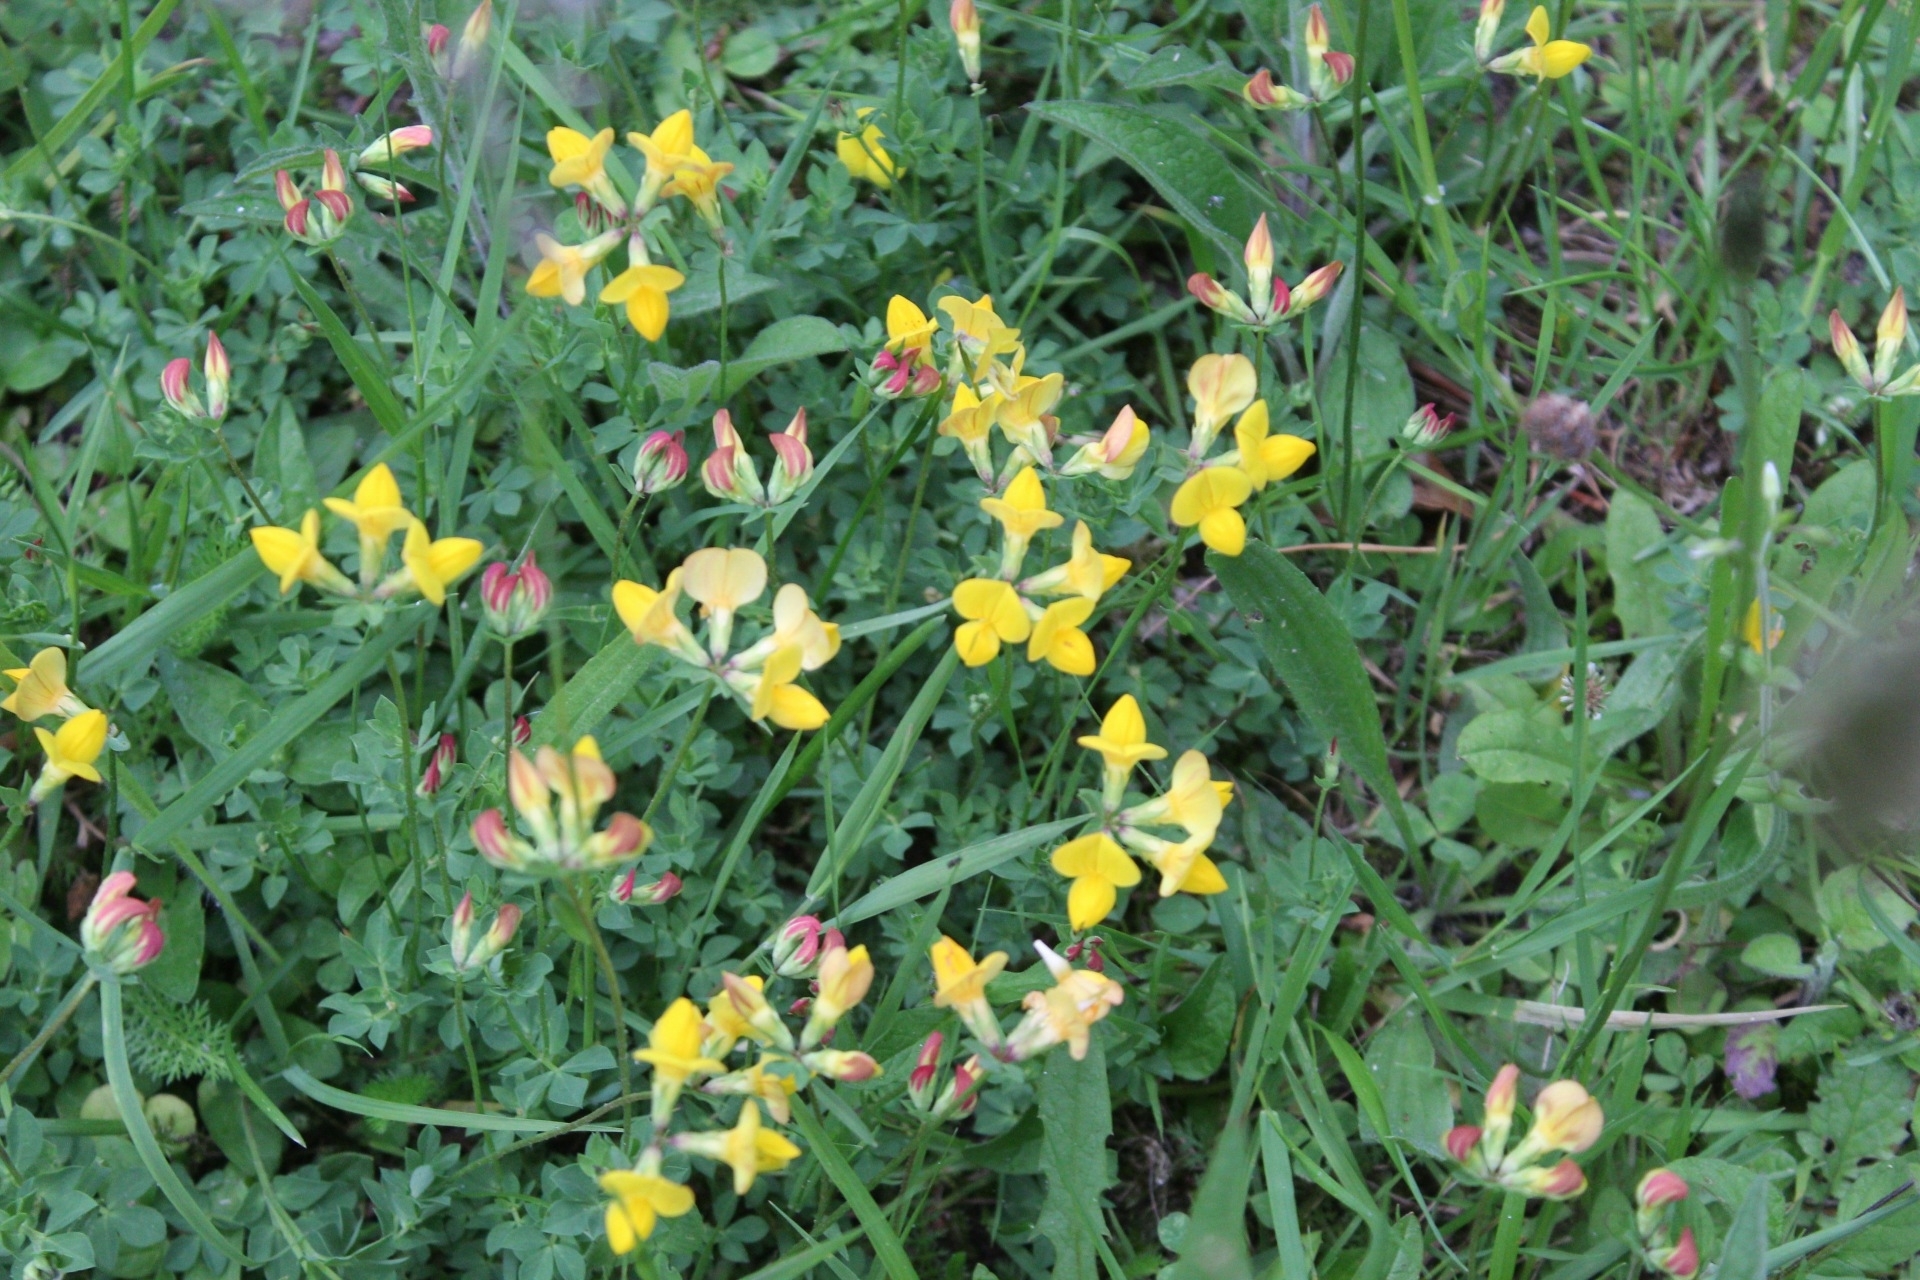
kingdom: Plantae
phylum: Tracheophyta
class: Magnoliopsida
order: Fabales
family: Fabaceae
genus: Lotus
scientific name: Lotus corniculatus
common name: Common bird's-foot-trefoil
